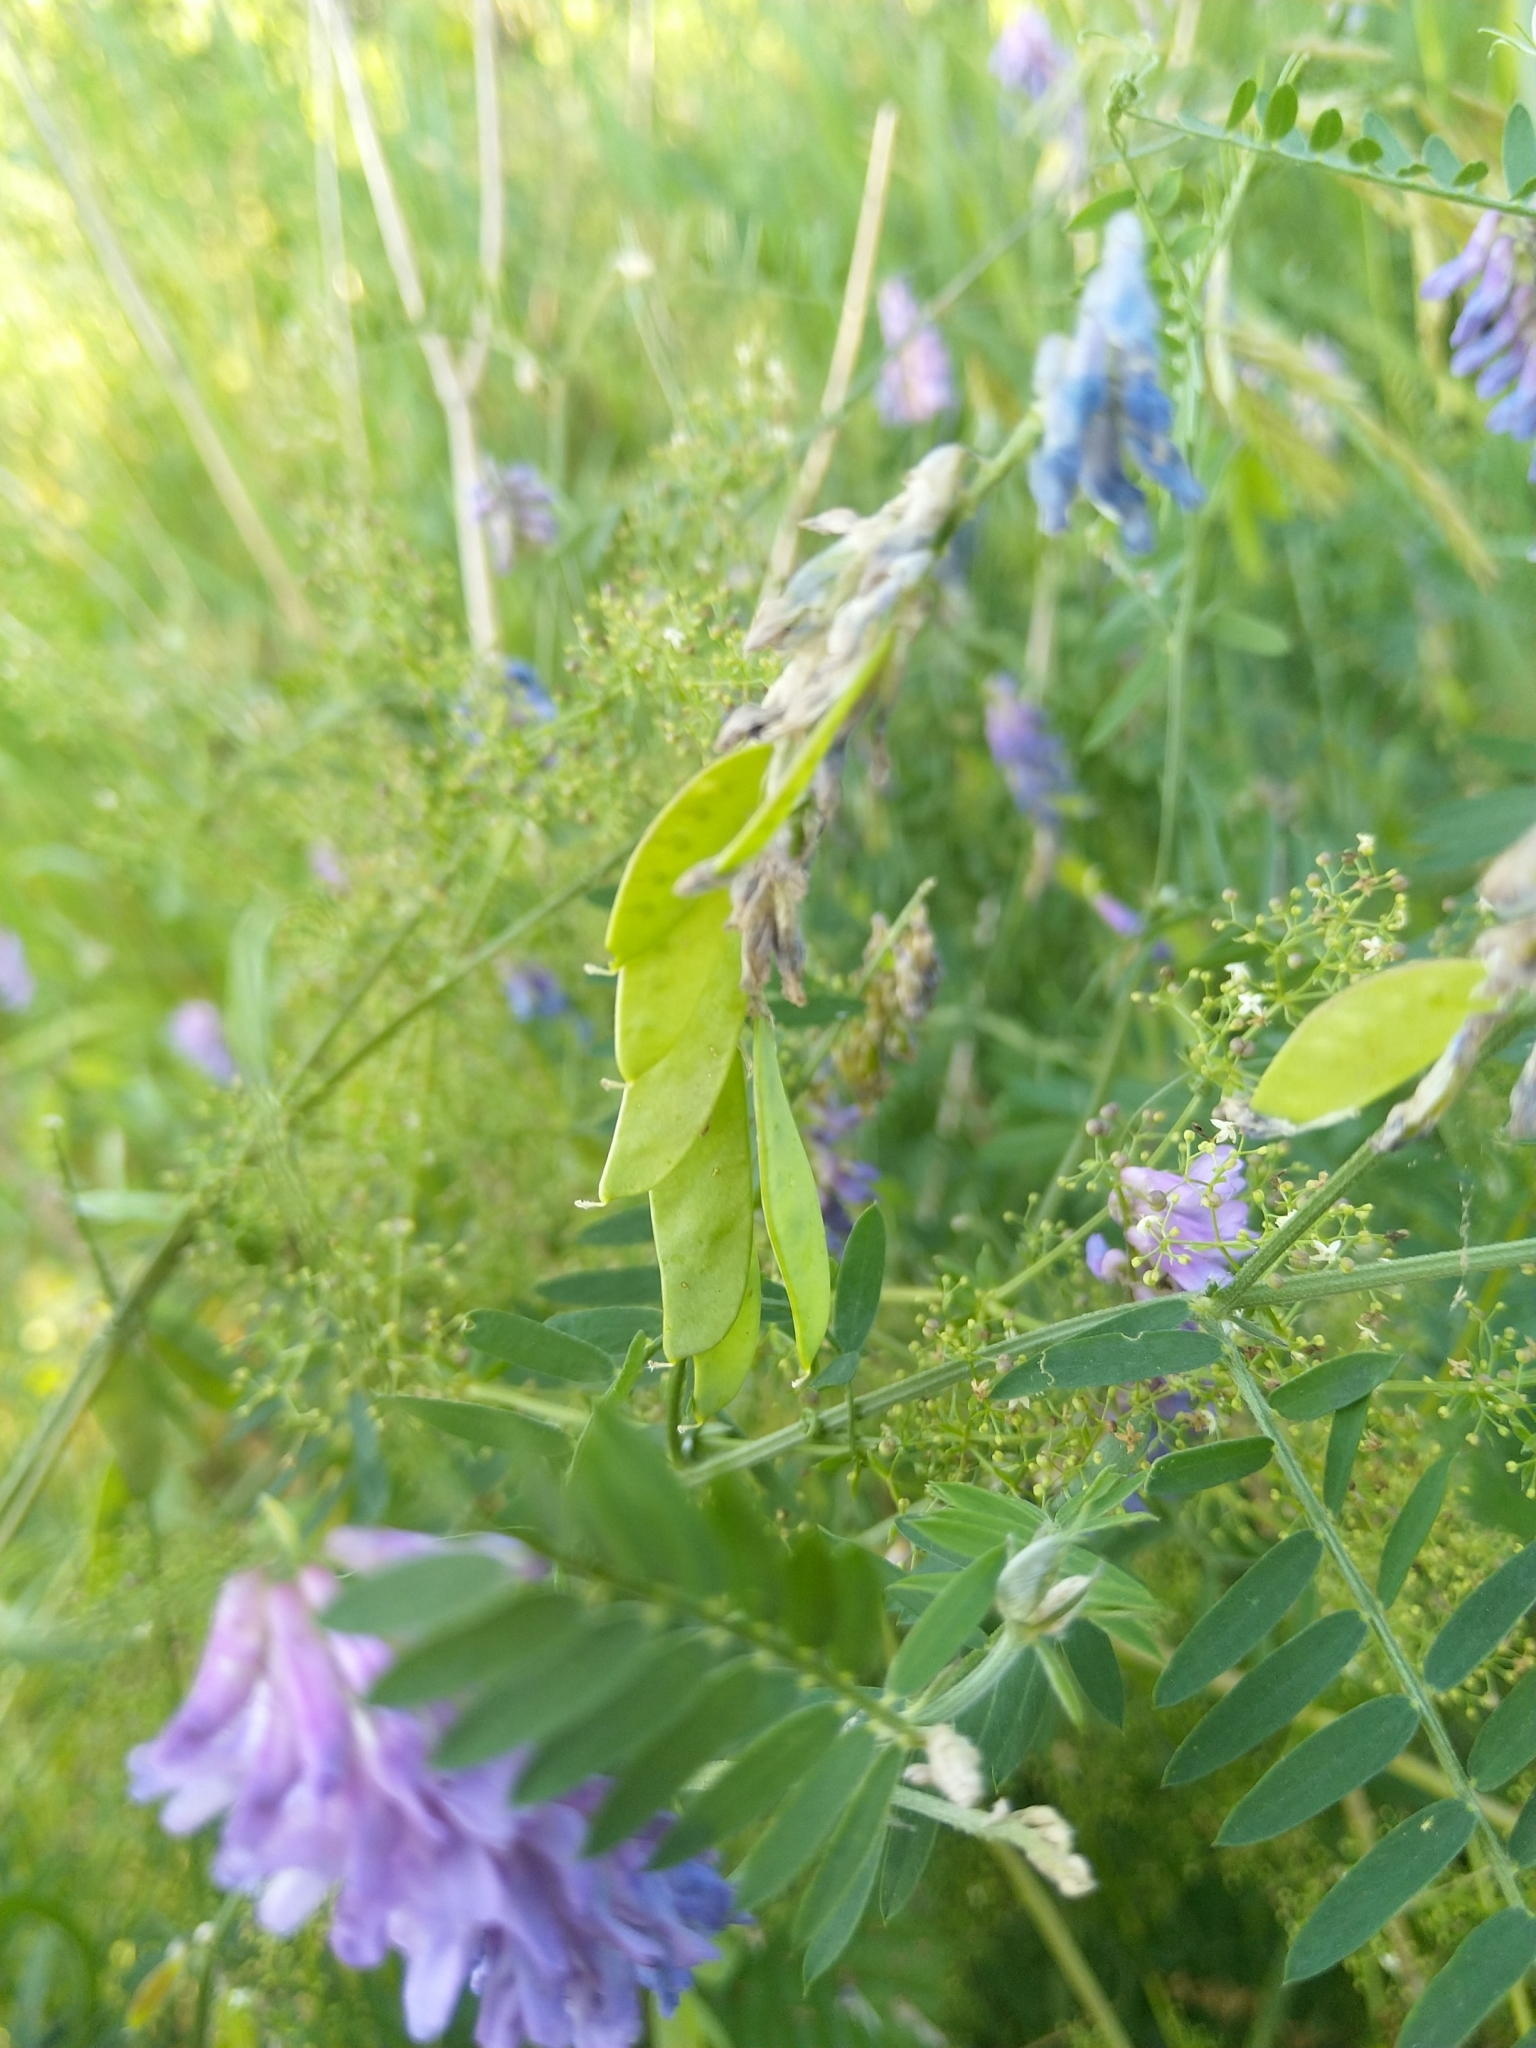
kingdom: Plantae
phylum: Tracheophyta
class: Magnoliopsida
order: Fabales
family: Fabaceae
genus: Vicia
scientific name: Vicia cracca
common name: Bird vetch
